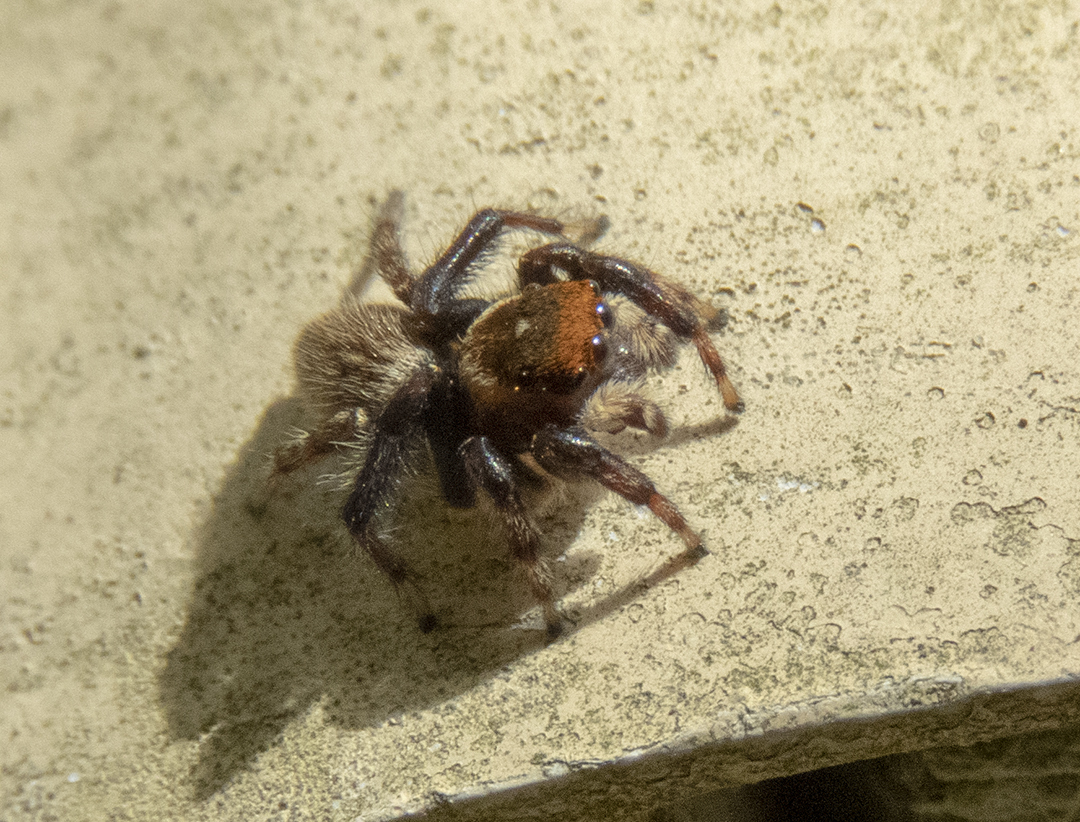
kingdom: Animalia
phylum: Arthropoda
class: Arachnida
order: Araneae
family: Salticidae
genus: Maratus
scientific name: Maratus griseus
